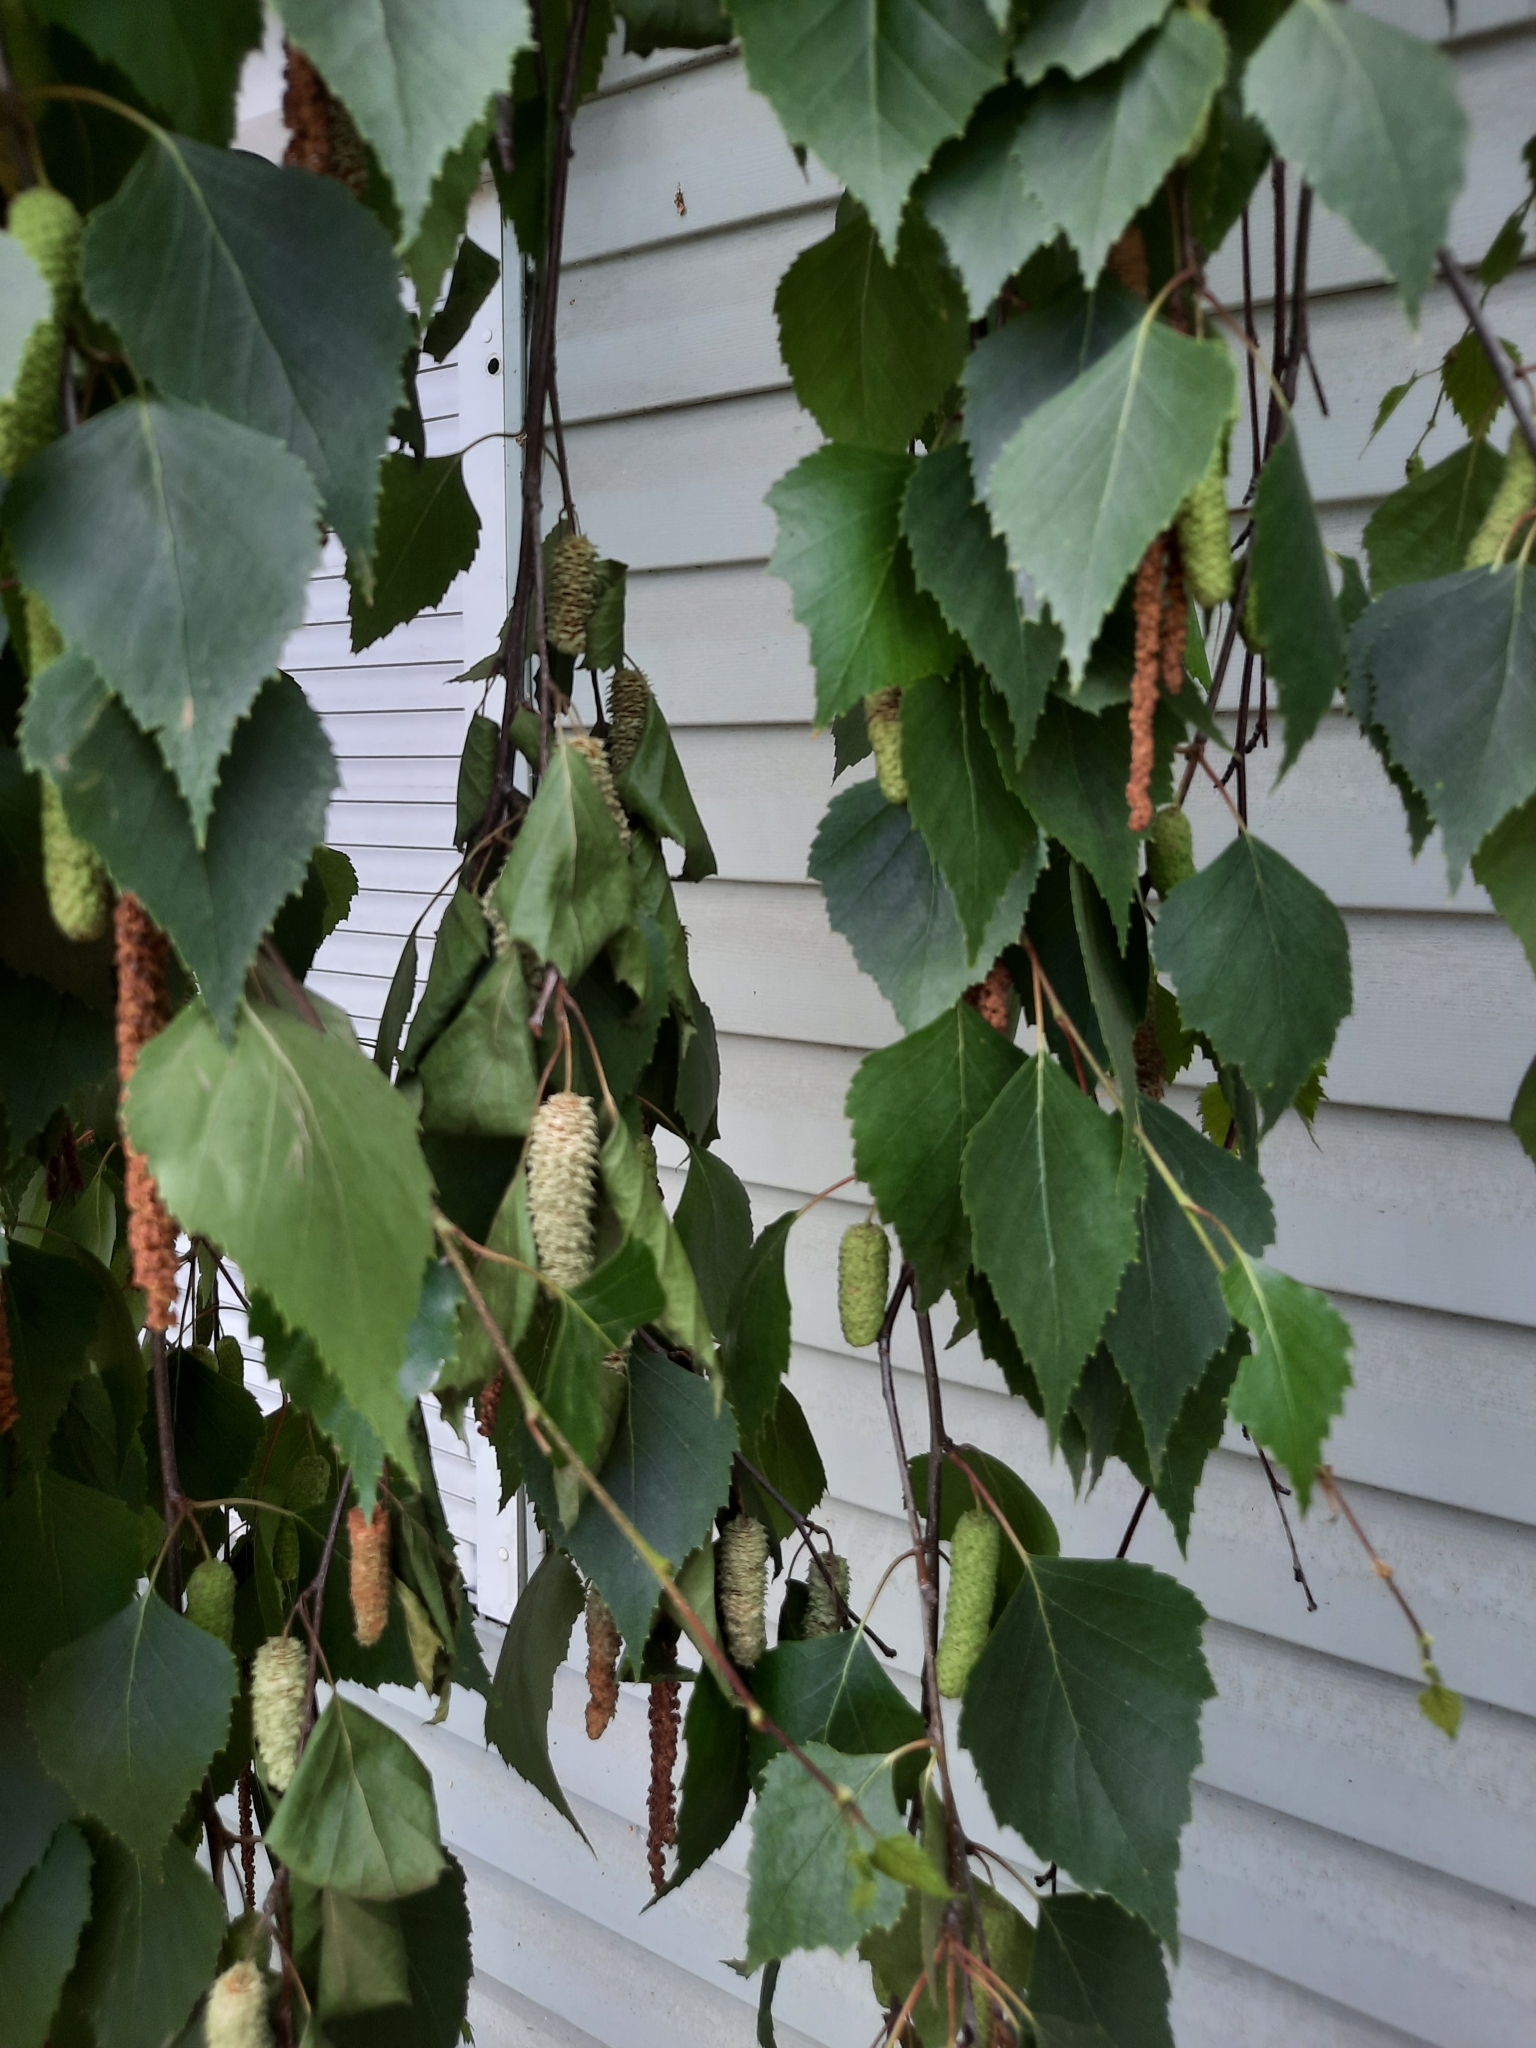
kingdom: Plantae
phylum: Tracheophyta
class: Magnoliopsida
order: Fagales
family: Betulaceae
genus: Betula
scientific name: Betula pendula
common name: Silver birch
